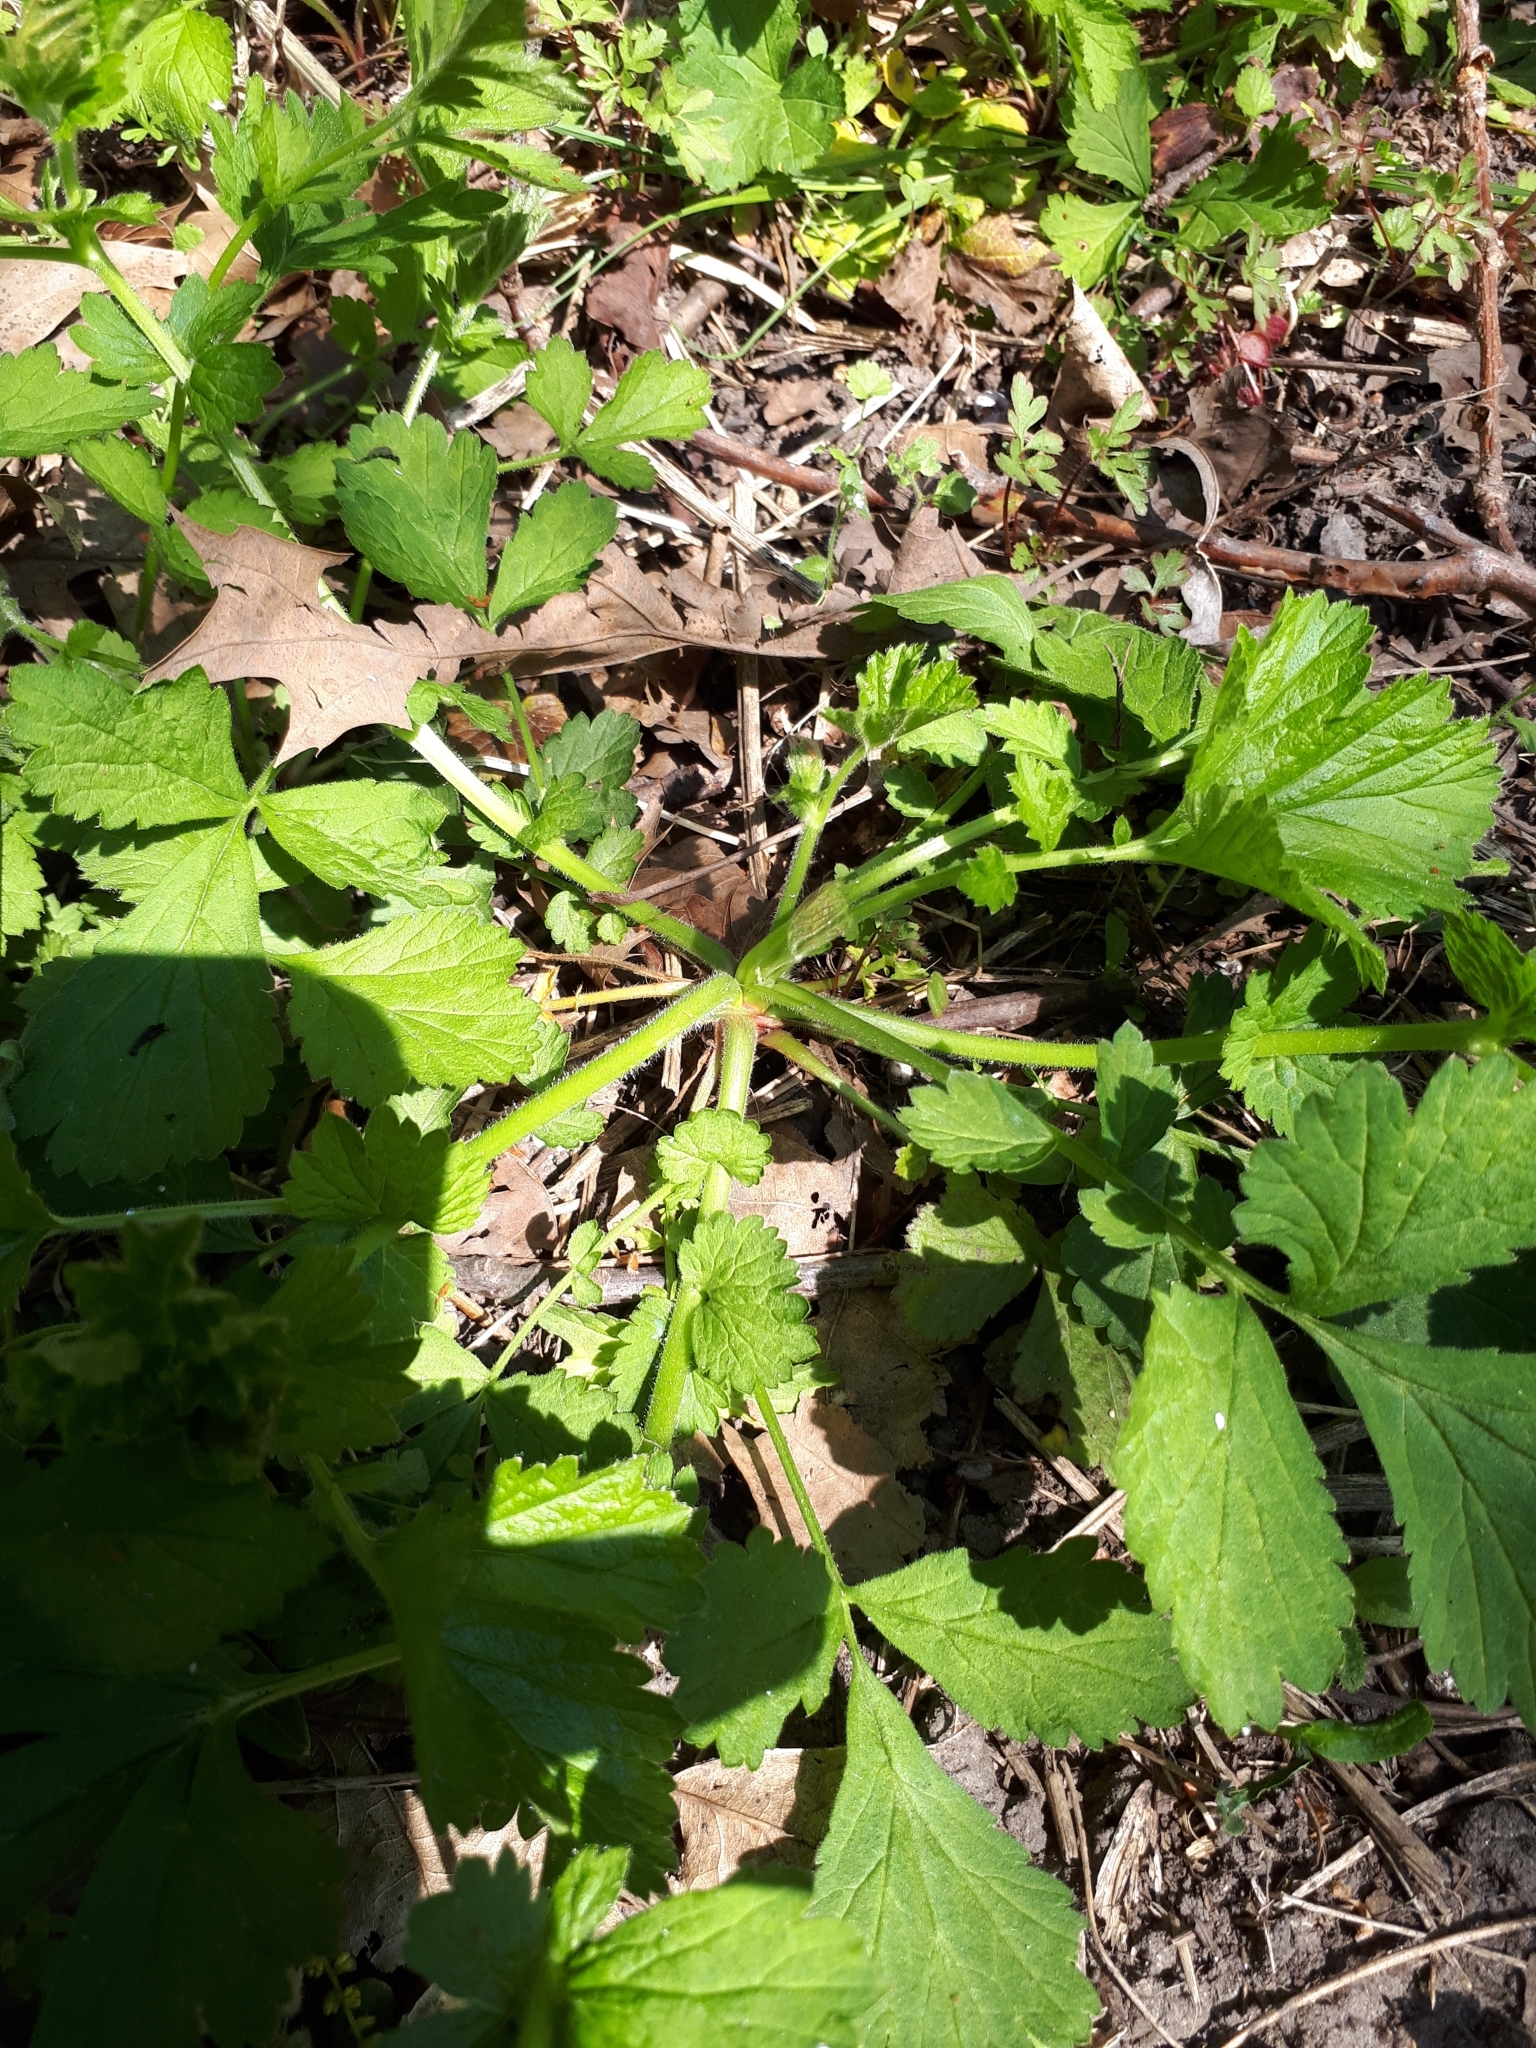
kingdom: Plantae
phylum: Tracheophyta
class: Magnoliopsida
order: Rosales
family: Rosaceae
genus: Geum
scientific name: Geum urbanum
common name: Wood avens
